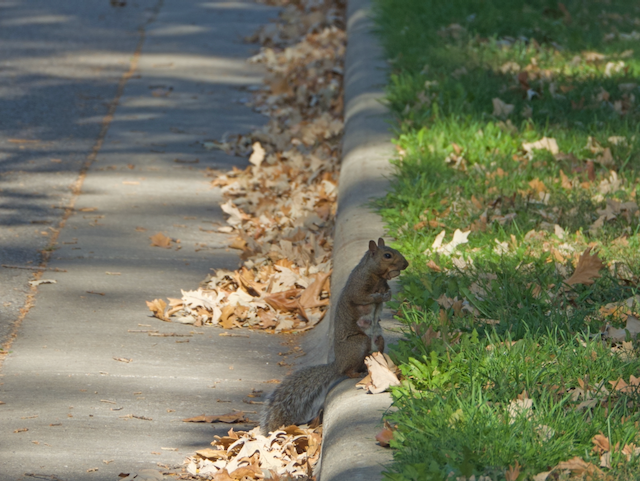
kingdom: Animalia
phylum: Chordata
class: Mammalia
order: Rodentia
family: Sciuridae
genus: Sciurus
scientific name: Sciurus carolinensis
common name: Eastern gray squirrel
